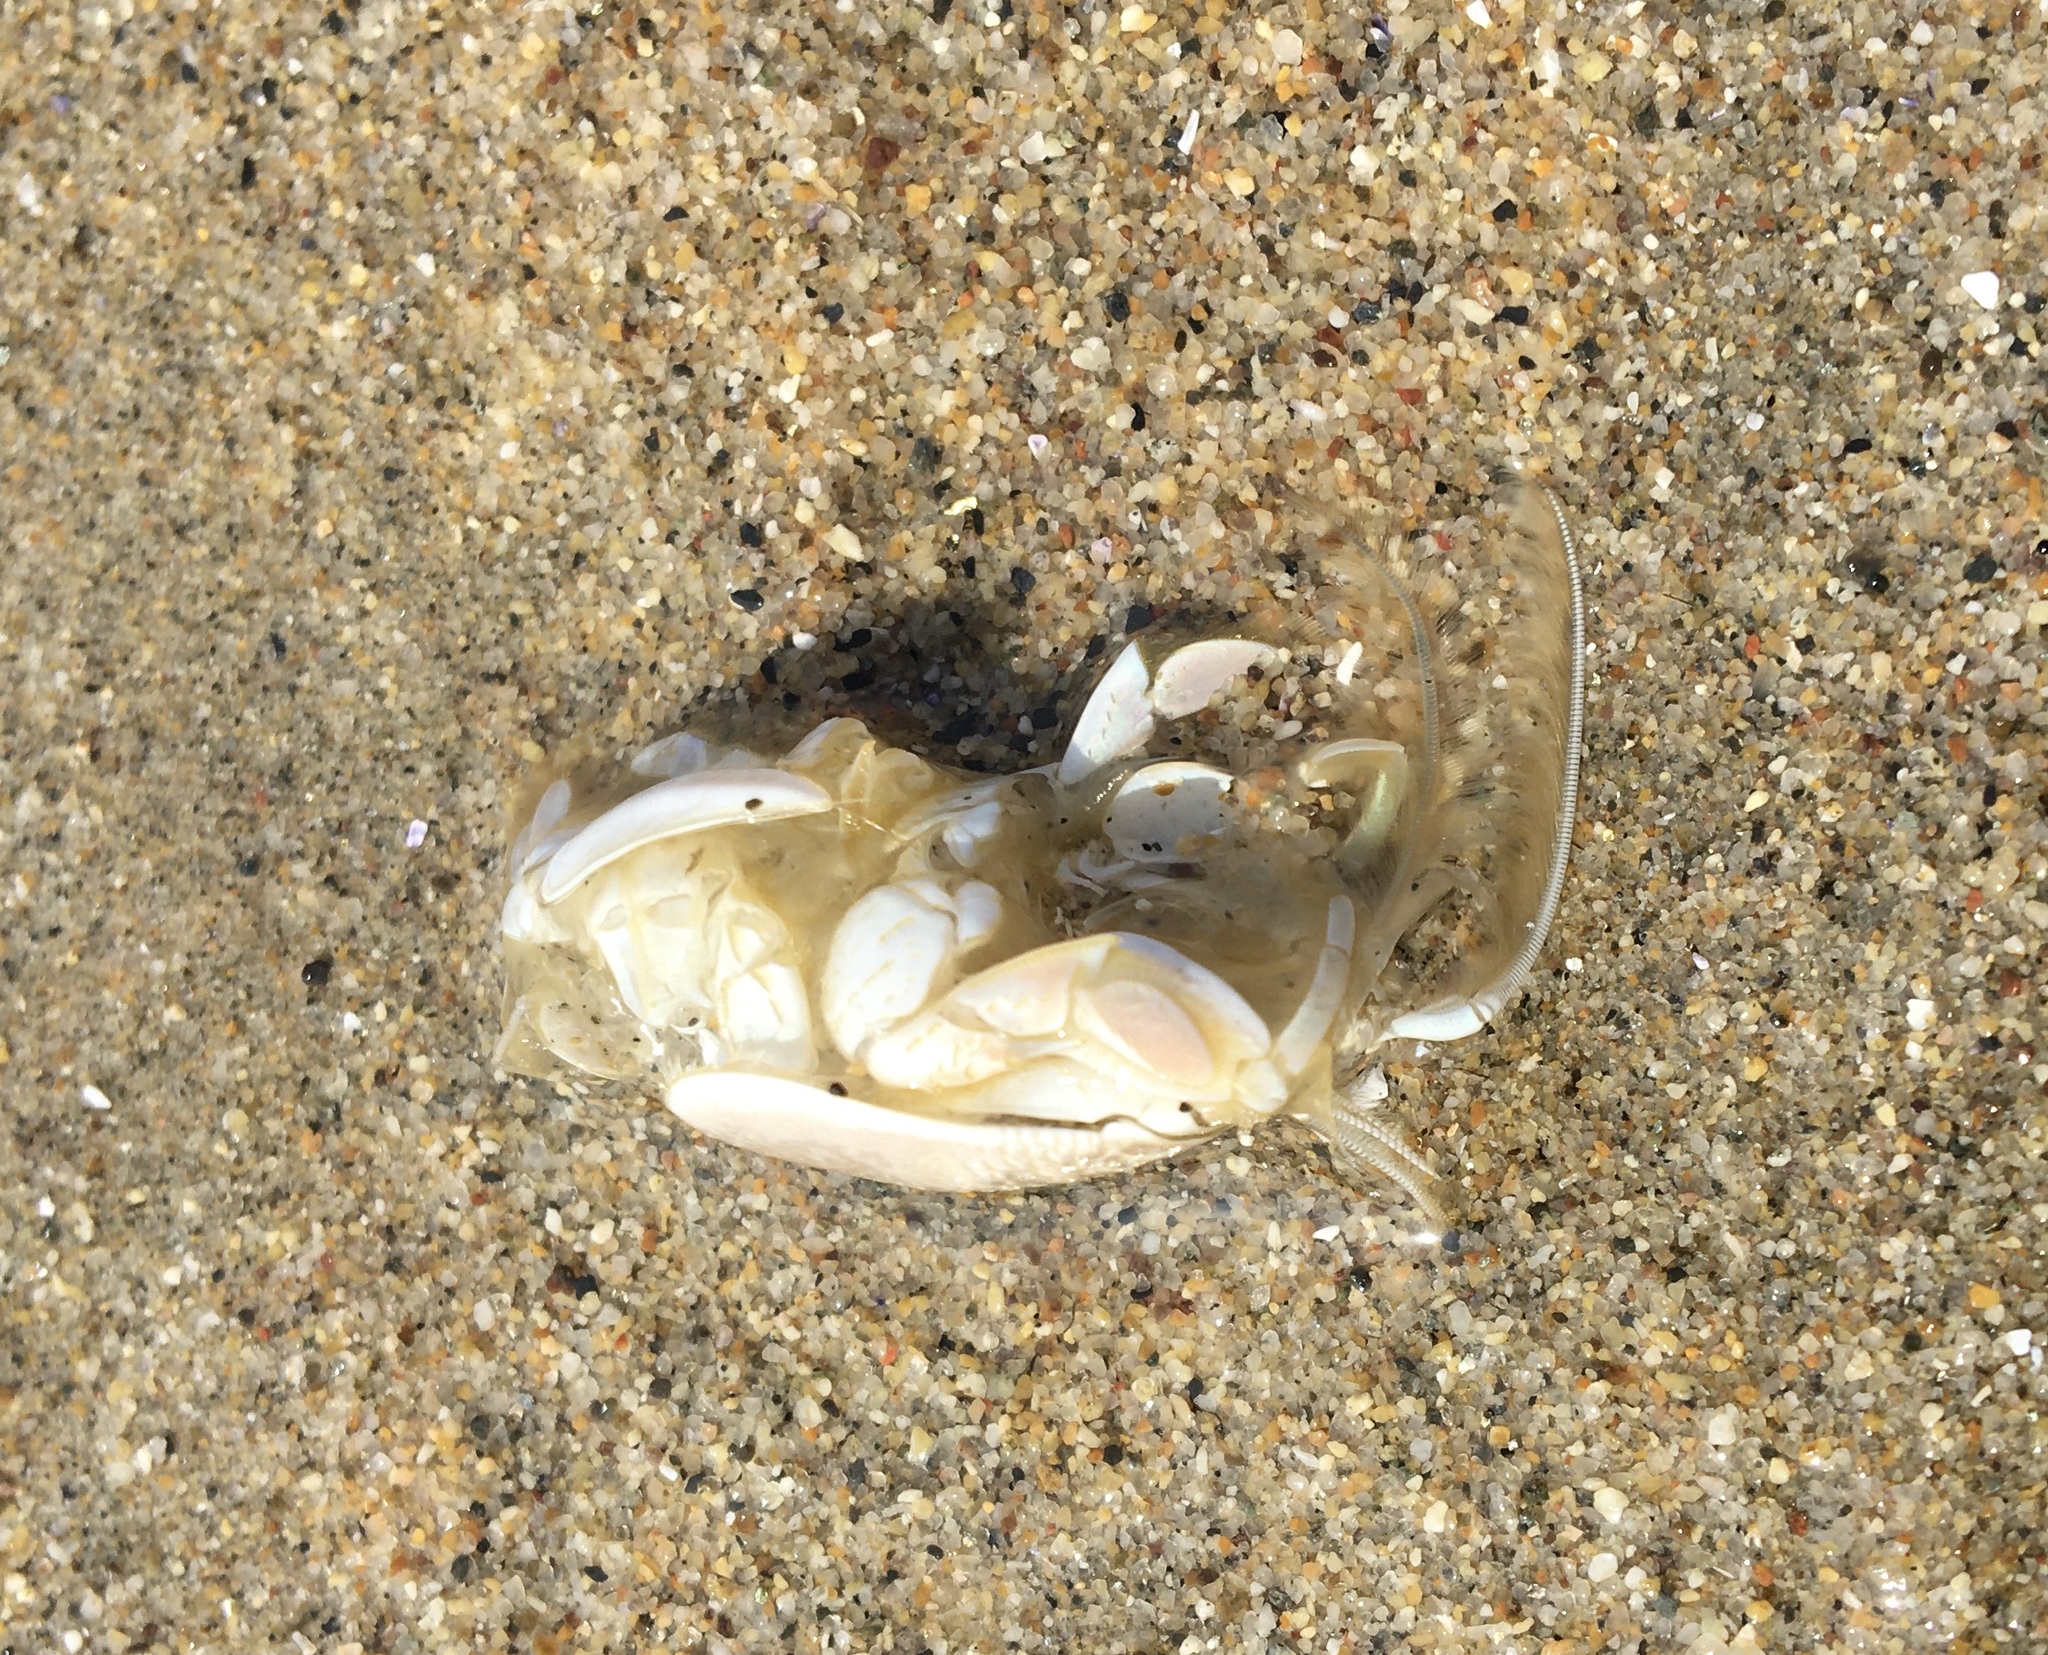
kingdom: Animalia
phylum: Arthropoda
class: Malacostraca
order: Decapoda
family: Hippidae
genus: Emerita
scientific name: Emerita analoga
